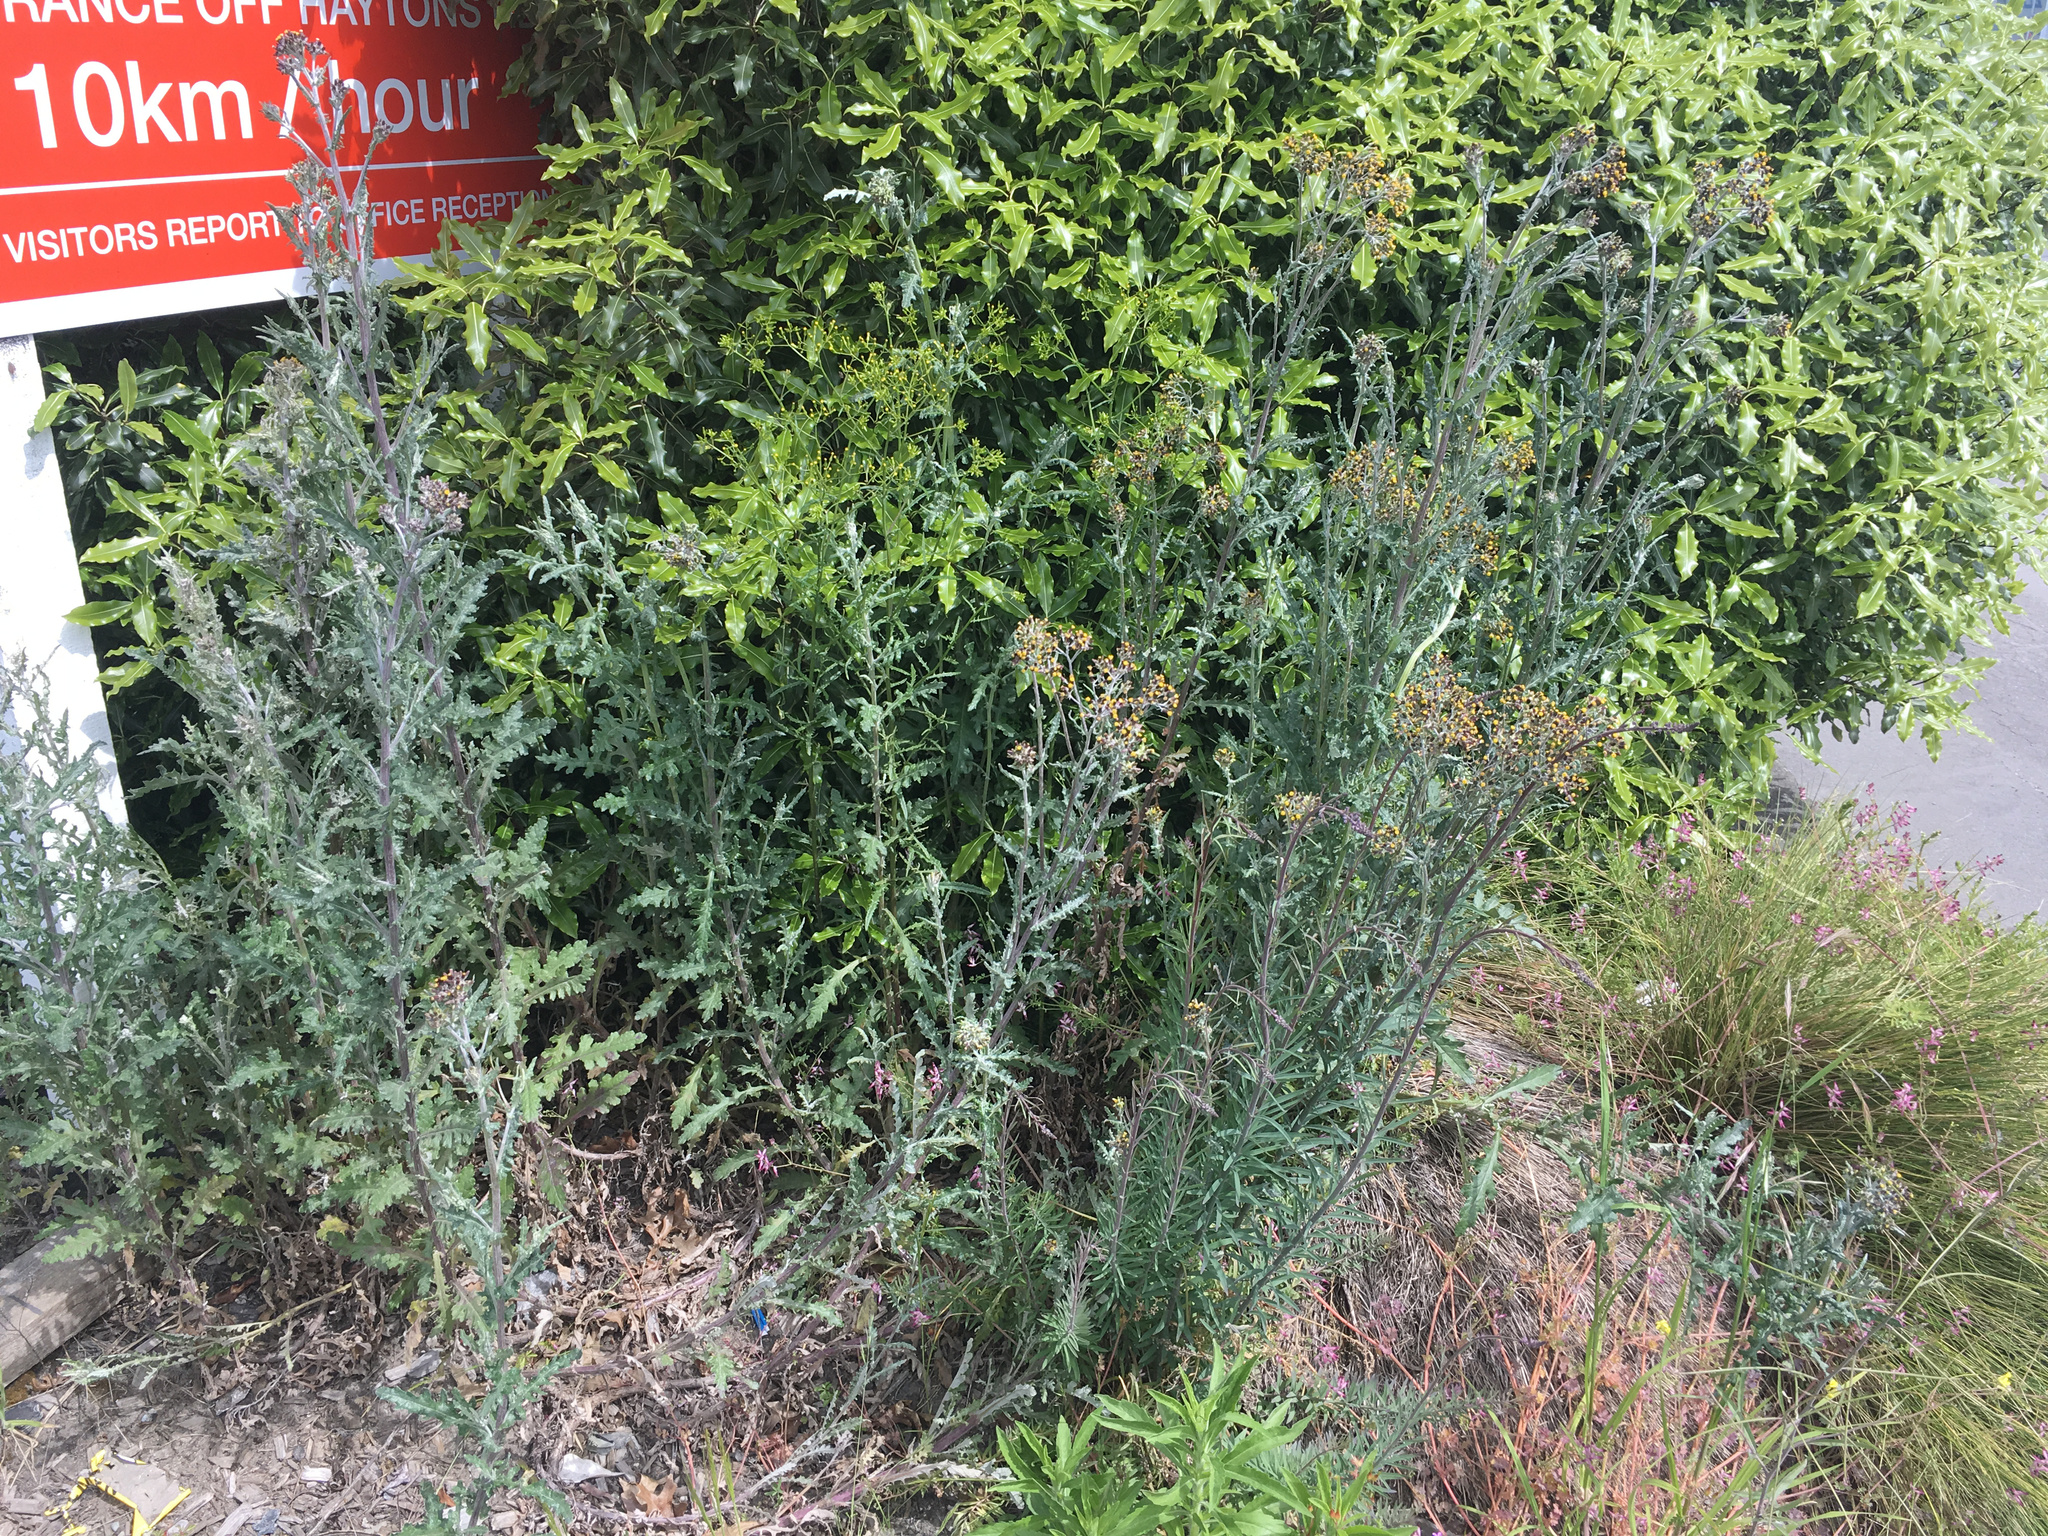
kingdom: Plantae
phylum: Tracheophyta
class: Magnoliopsida
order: Asterales
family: Asteraceae
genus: Senecio
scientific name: Senecio glomeratus
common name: Cutleaf burnweed
